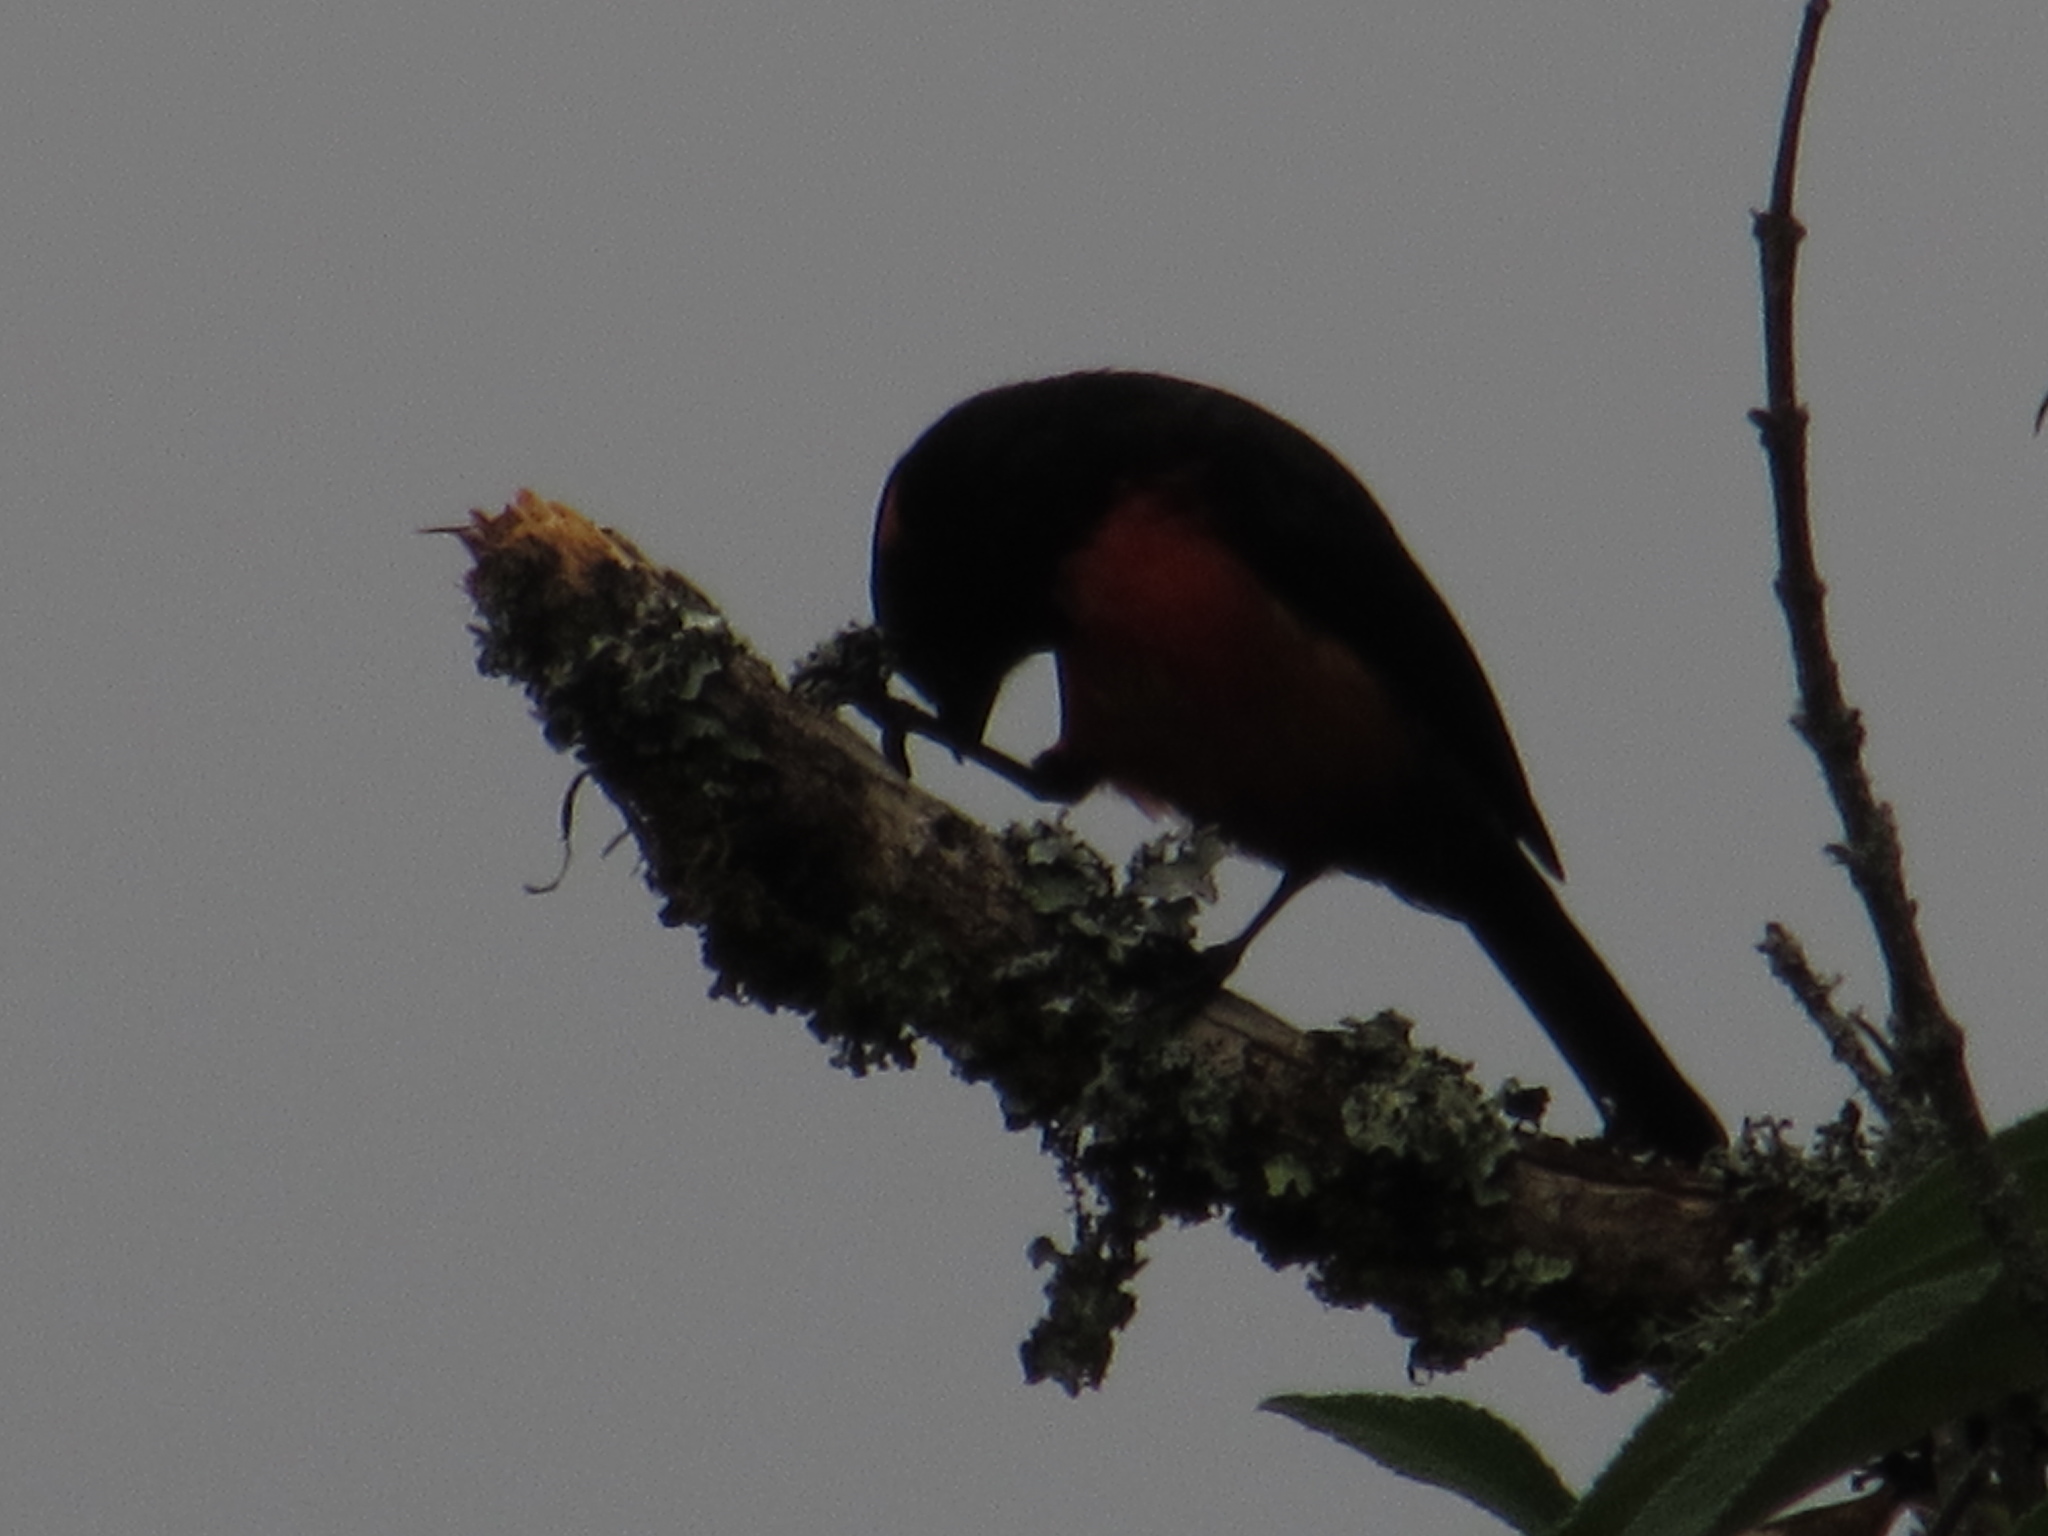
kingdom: Animalia
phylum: Chordata
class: Aves
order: Passeriformes
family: Thraupidae
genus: Anisognathus
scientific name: Anisognathus igniventris
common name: Scarlet-bellied mountain tanager
